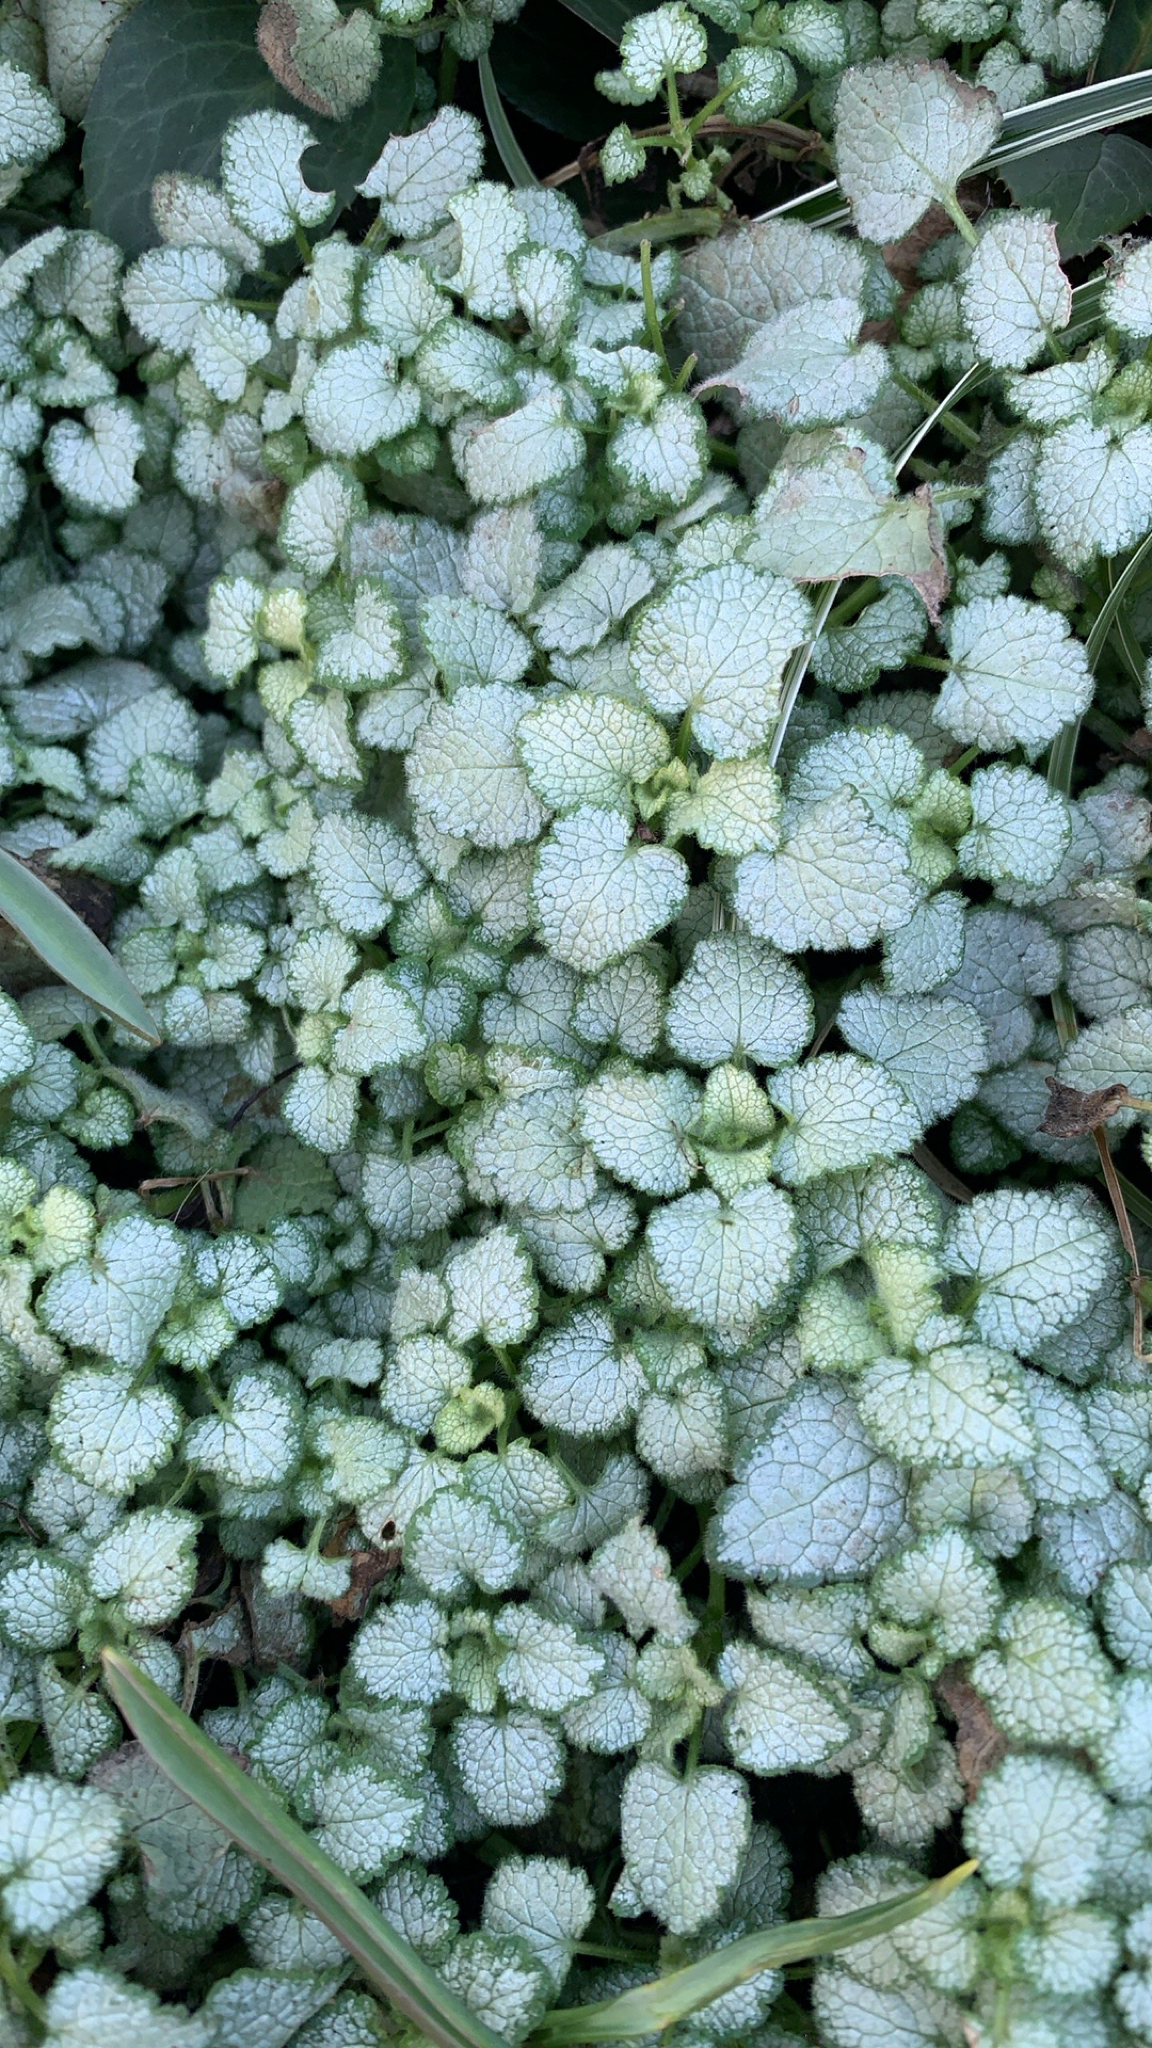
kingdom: Plantae
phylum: Tracheophyta
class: Magnoliopsida
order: Lamiales
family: Lamiaceae
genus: Lamium
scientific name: Lamium maculatum
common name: Spotted dead-nettle
